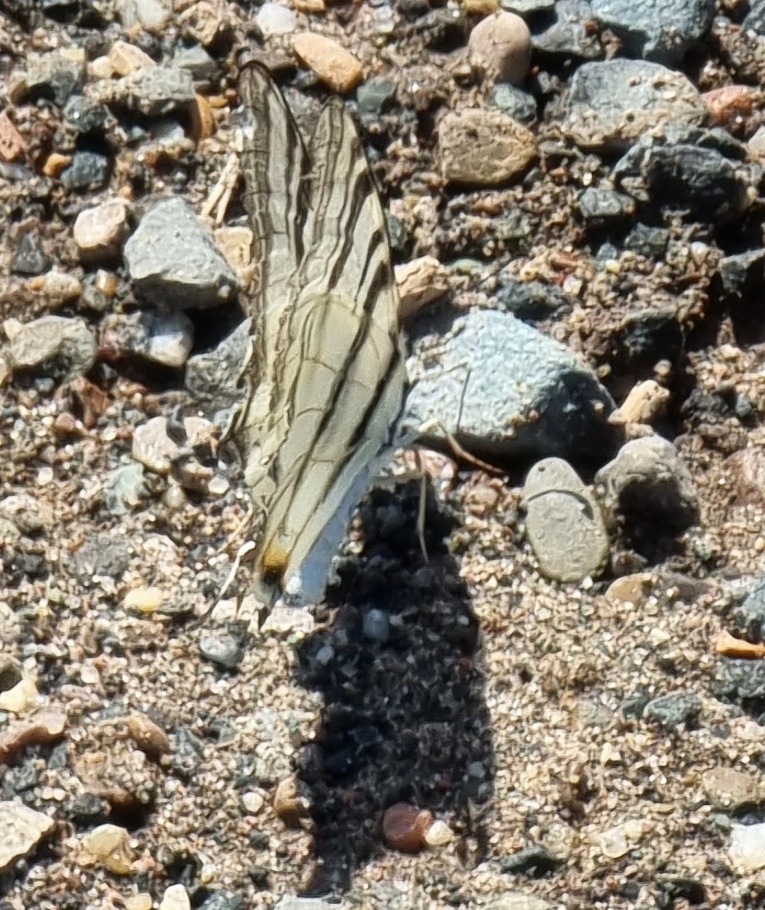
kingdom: Animalia
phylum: Arthropoda
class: Insecta
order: Lepidoptera
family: Papilionidae
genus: Iphiclides
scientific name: Iphiclides podalirius
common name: Scarce swallowtail
